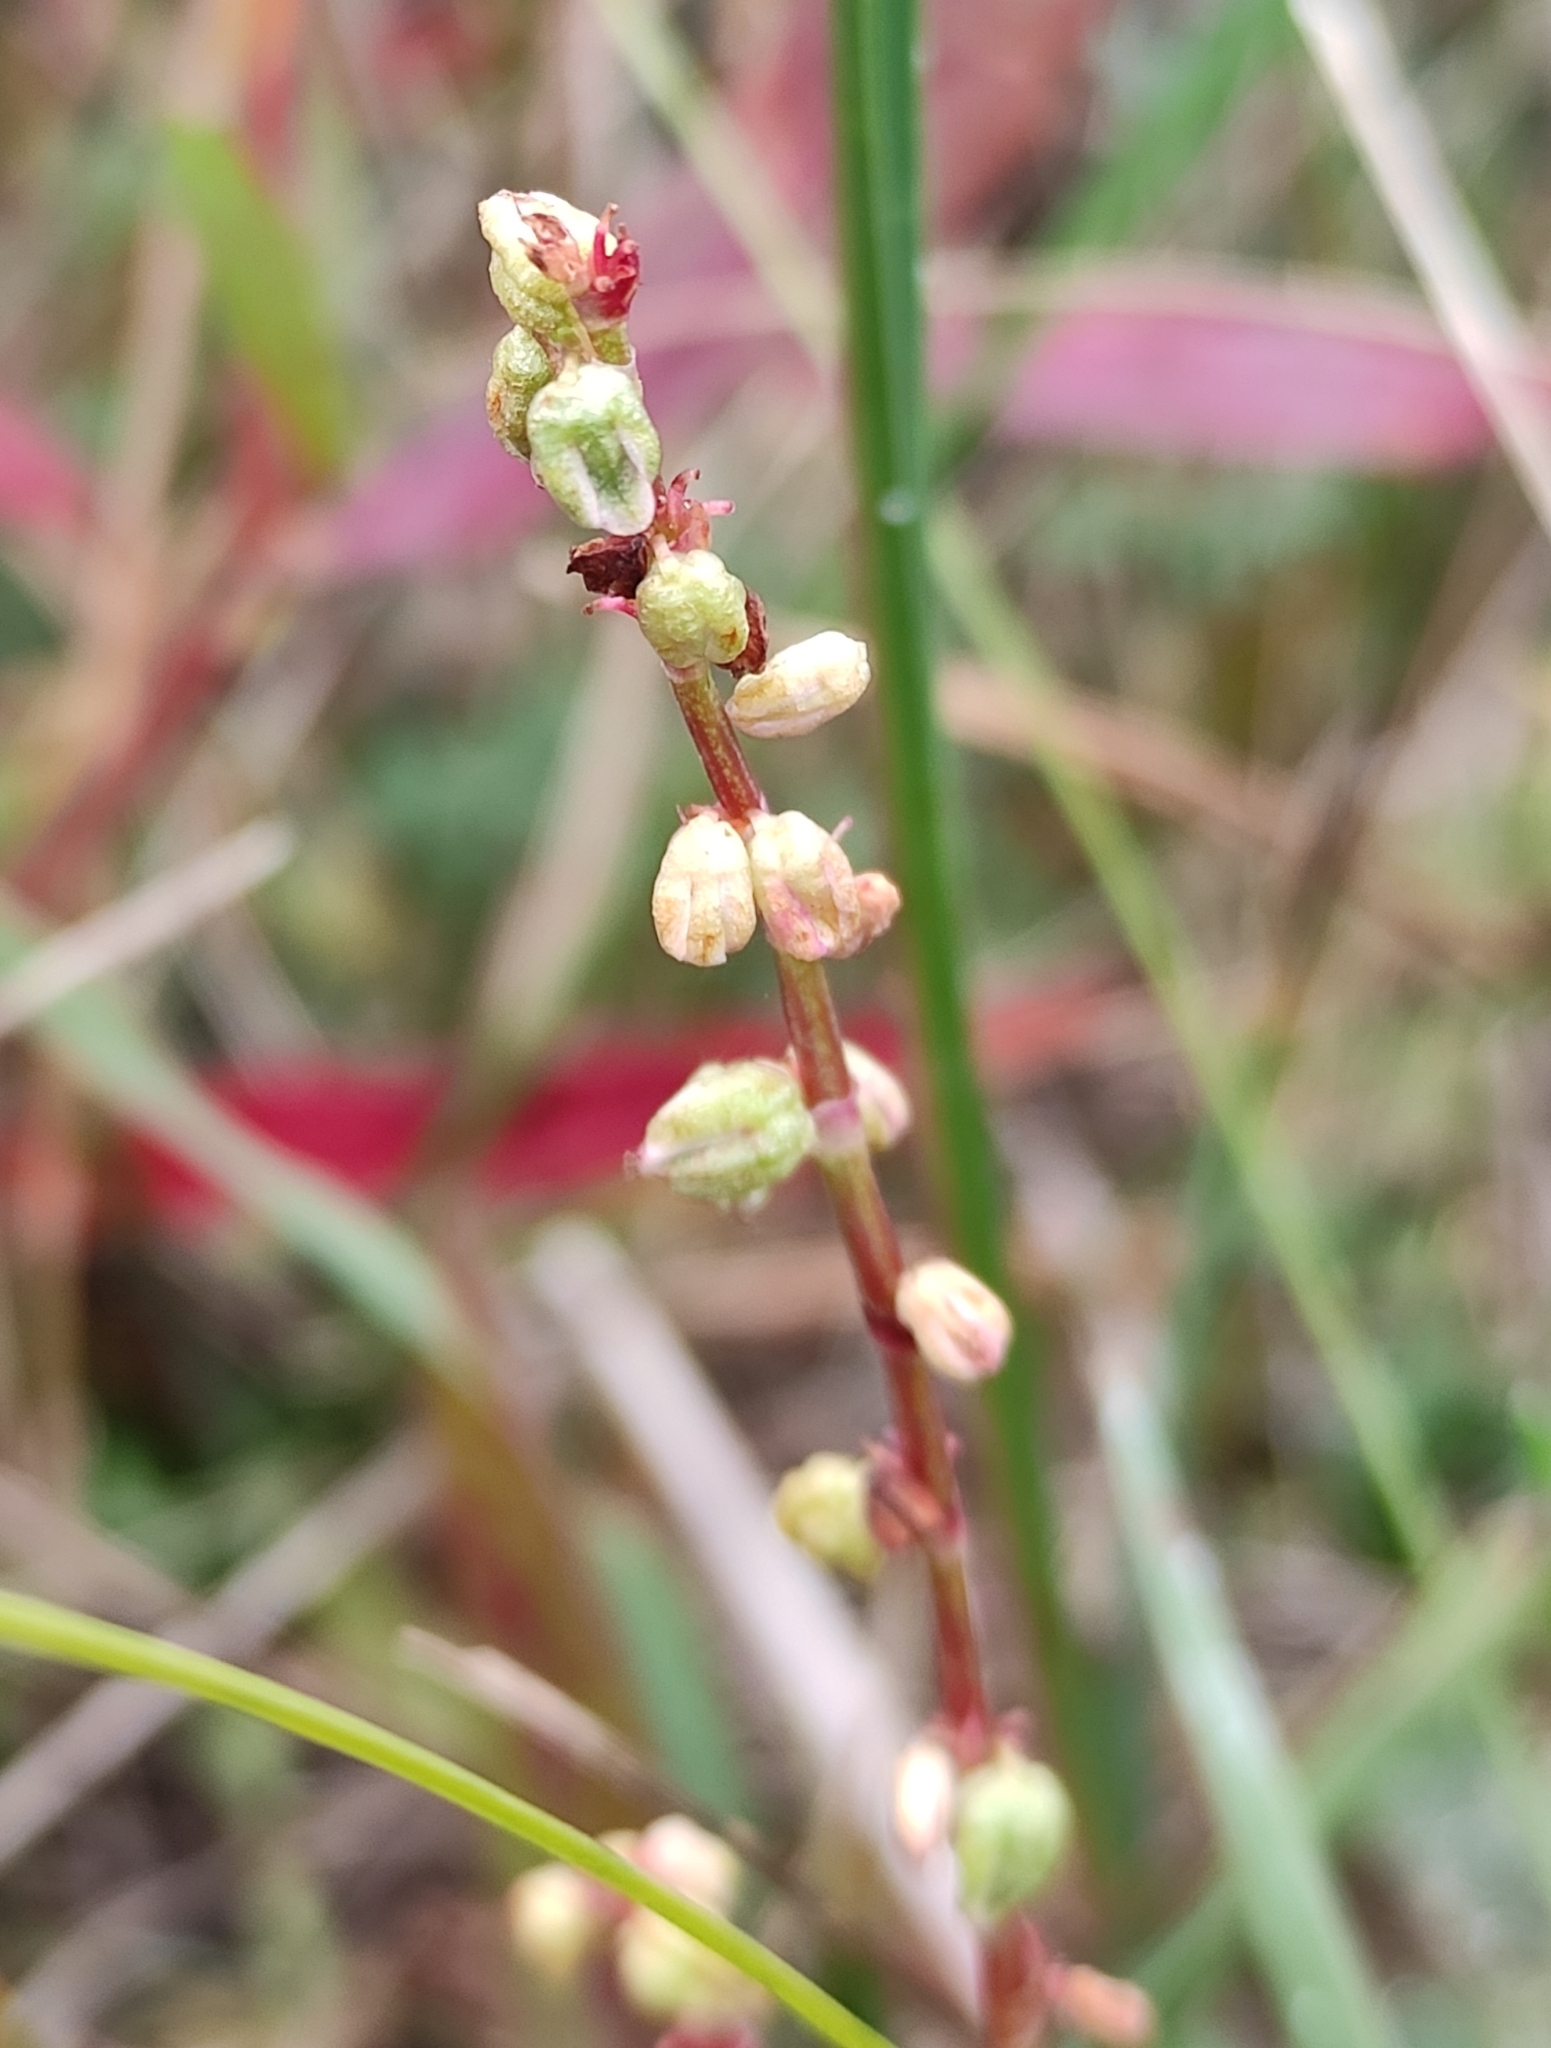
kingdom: Plantae
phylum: Tracheophyta
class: Magnoliopsida
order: Caryophyllales
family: Polygonaceae
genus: Rumex
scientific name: Rumex acetosella
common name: Common sheep sorrel
